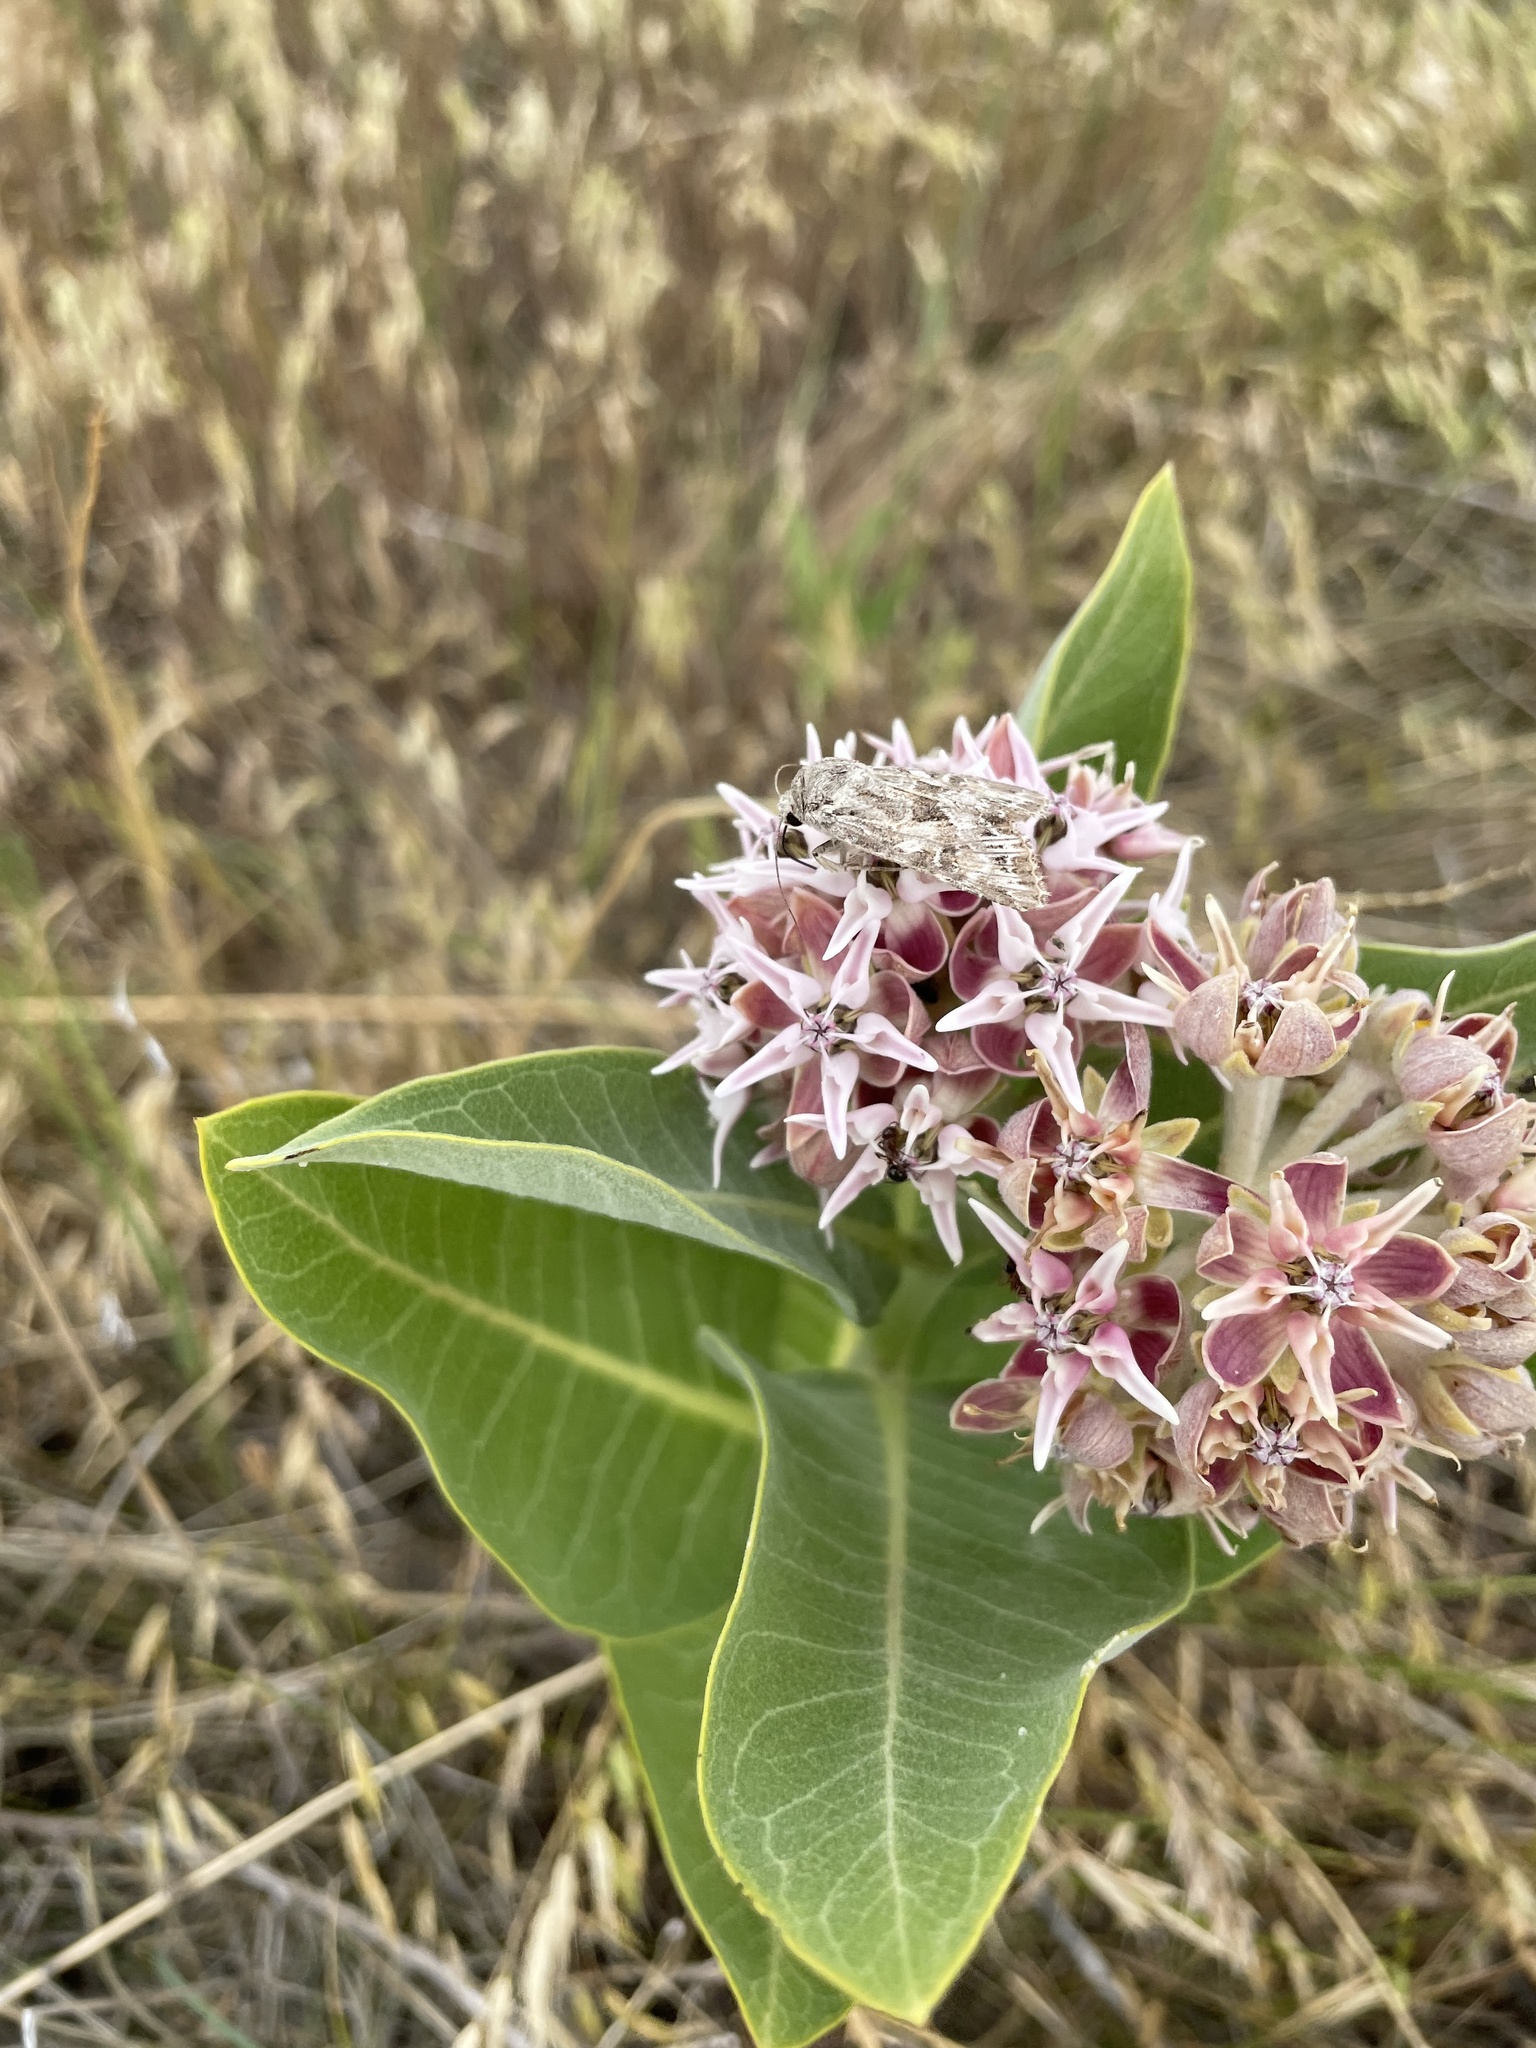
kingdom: Plantae
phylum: Tracheophyta
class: Magnoliopsida
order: Gentianales
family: Apocynaceae
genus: Asclepias
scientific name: Asclepias speciosa
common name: Showy milkweed
